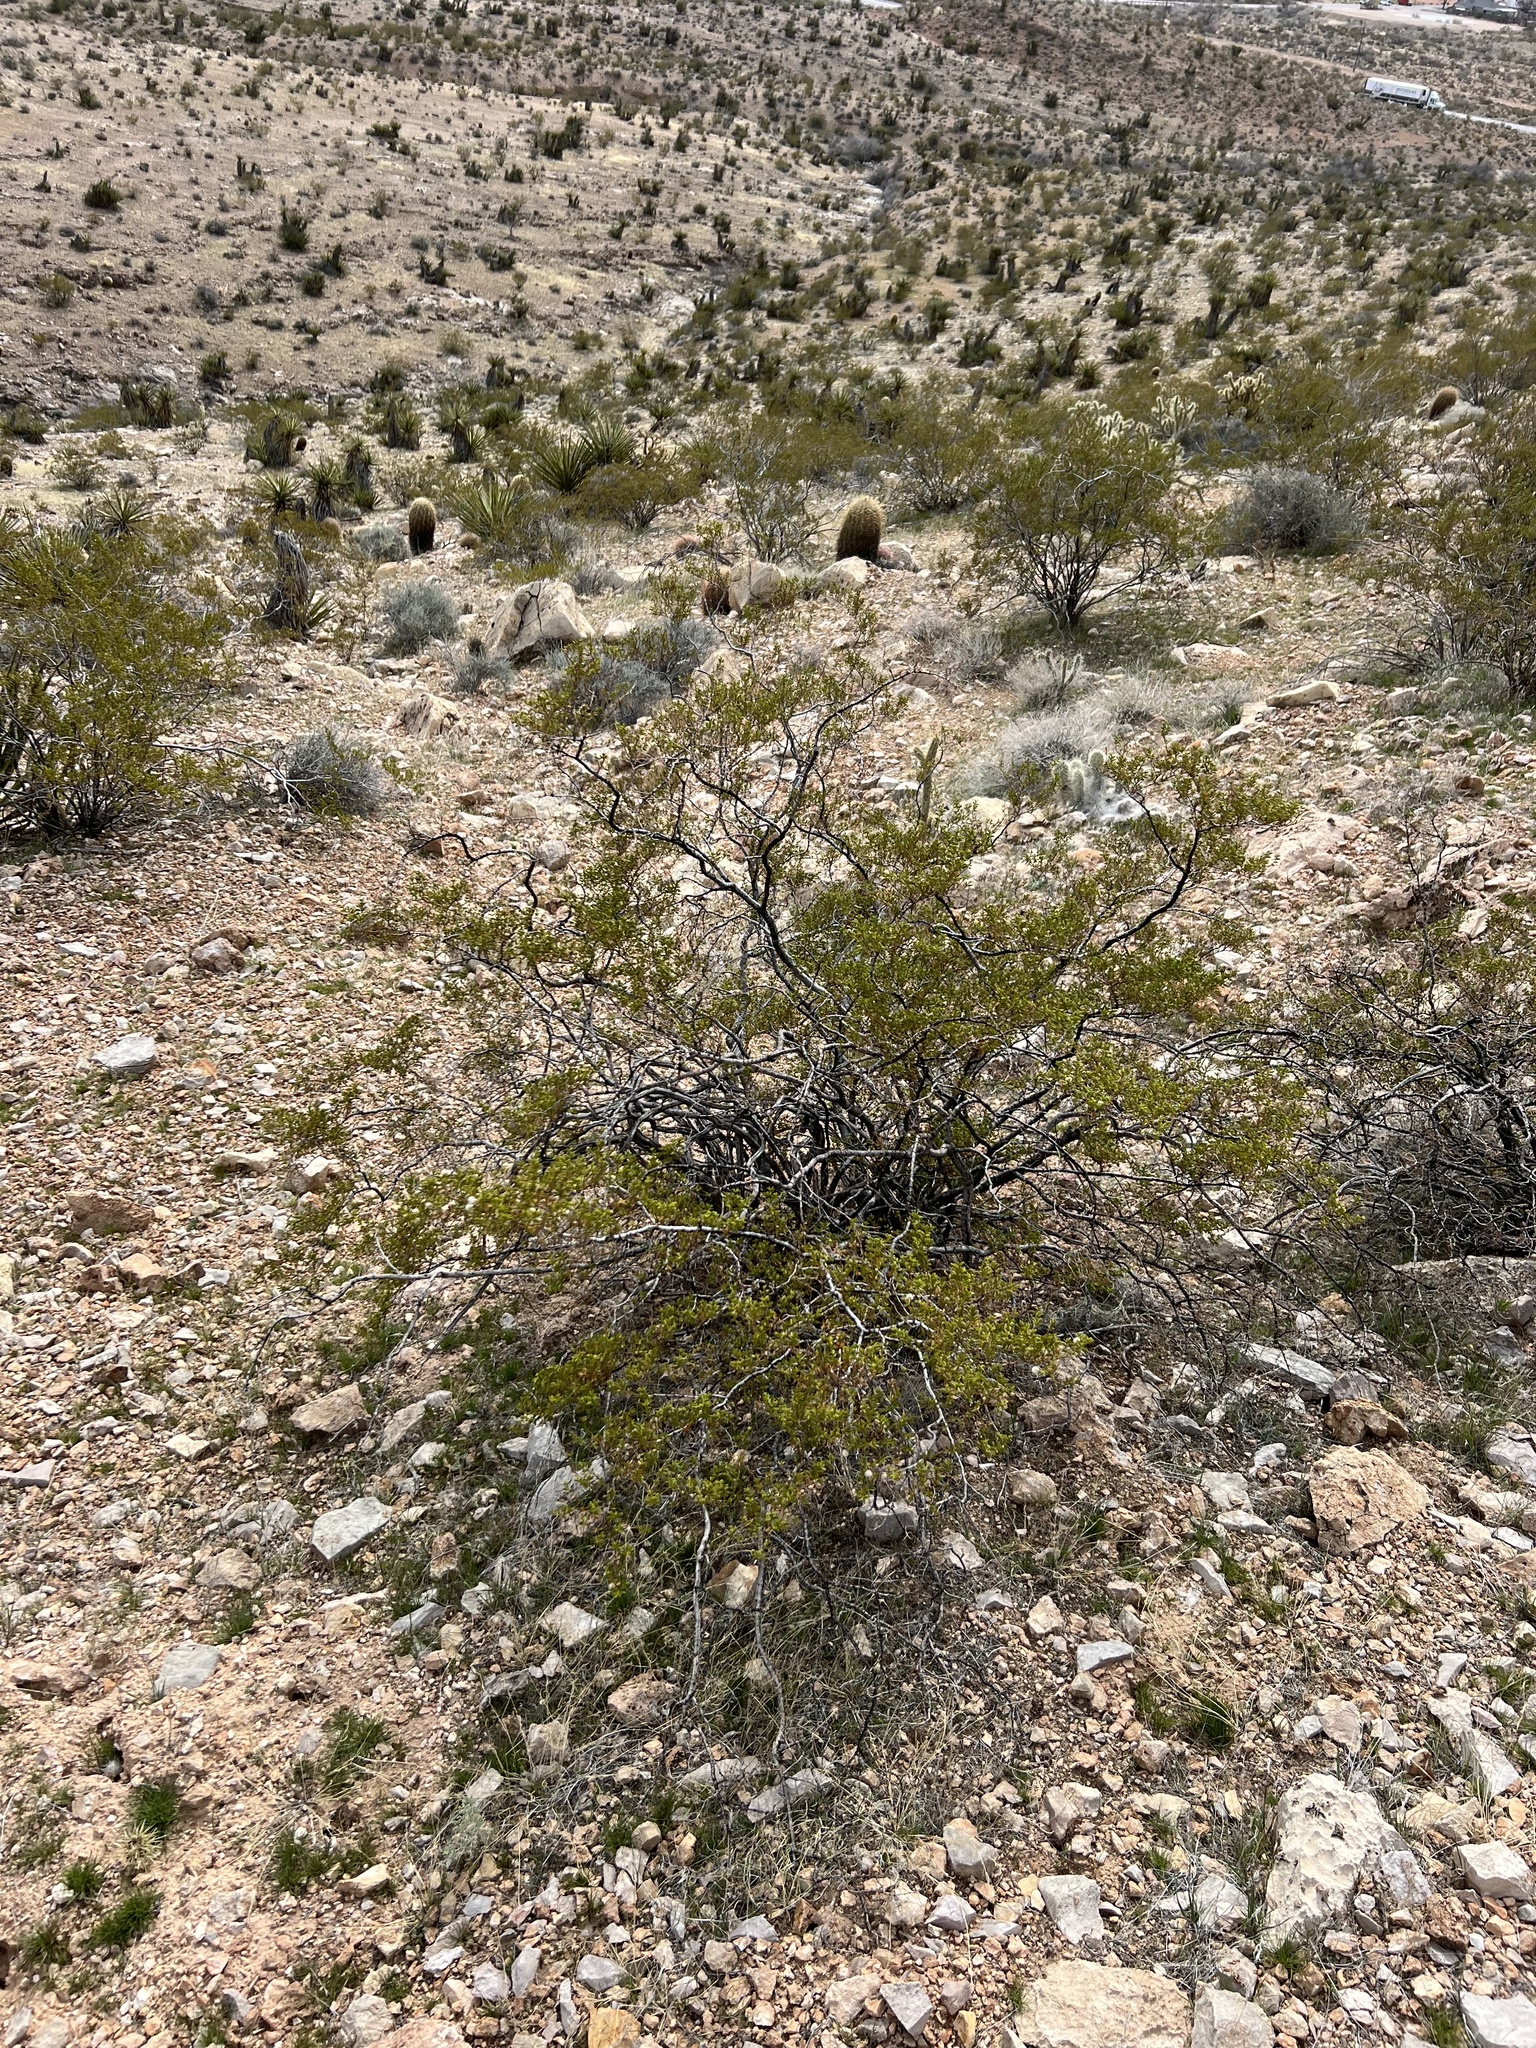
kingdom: Plantae
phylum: Tracheophyta
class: Magnoliopsida
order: Zygophyllales
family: Zygophyllaceae
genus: Larrea
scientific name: Larrea tridentata
